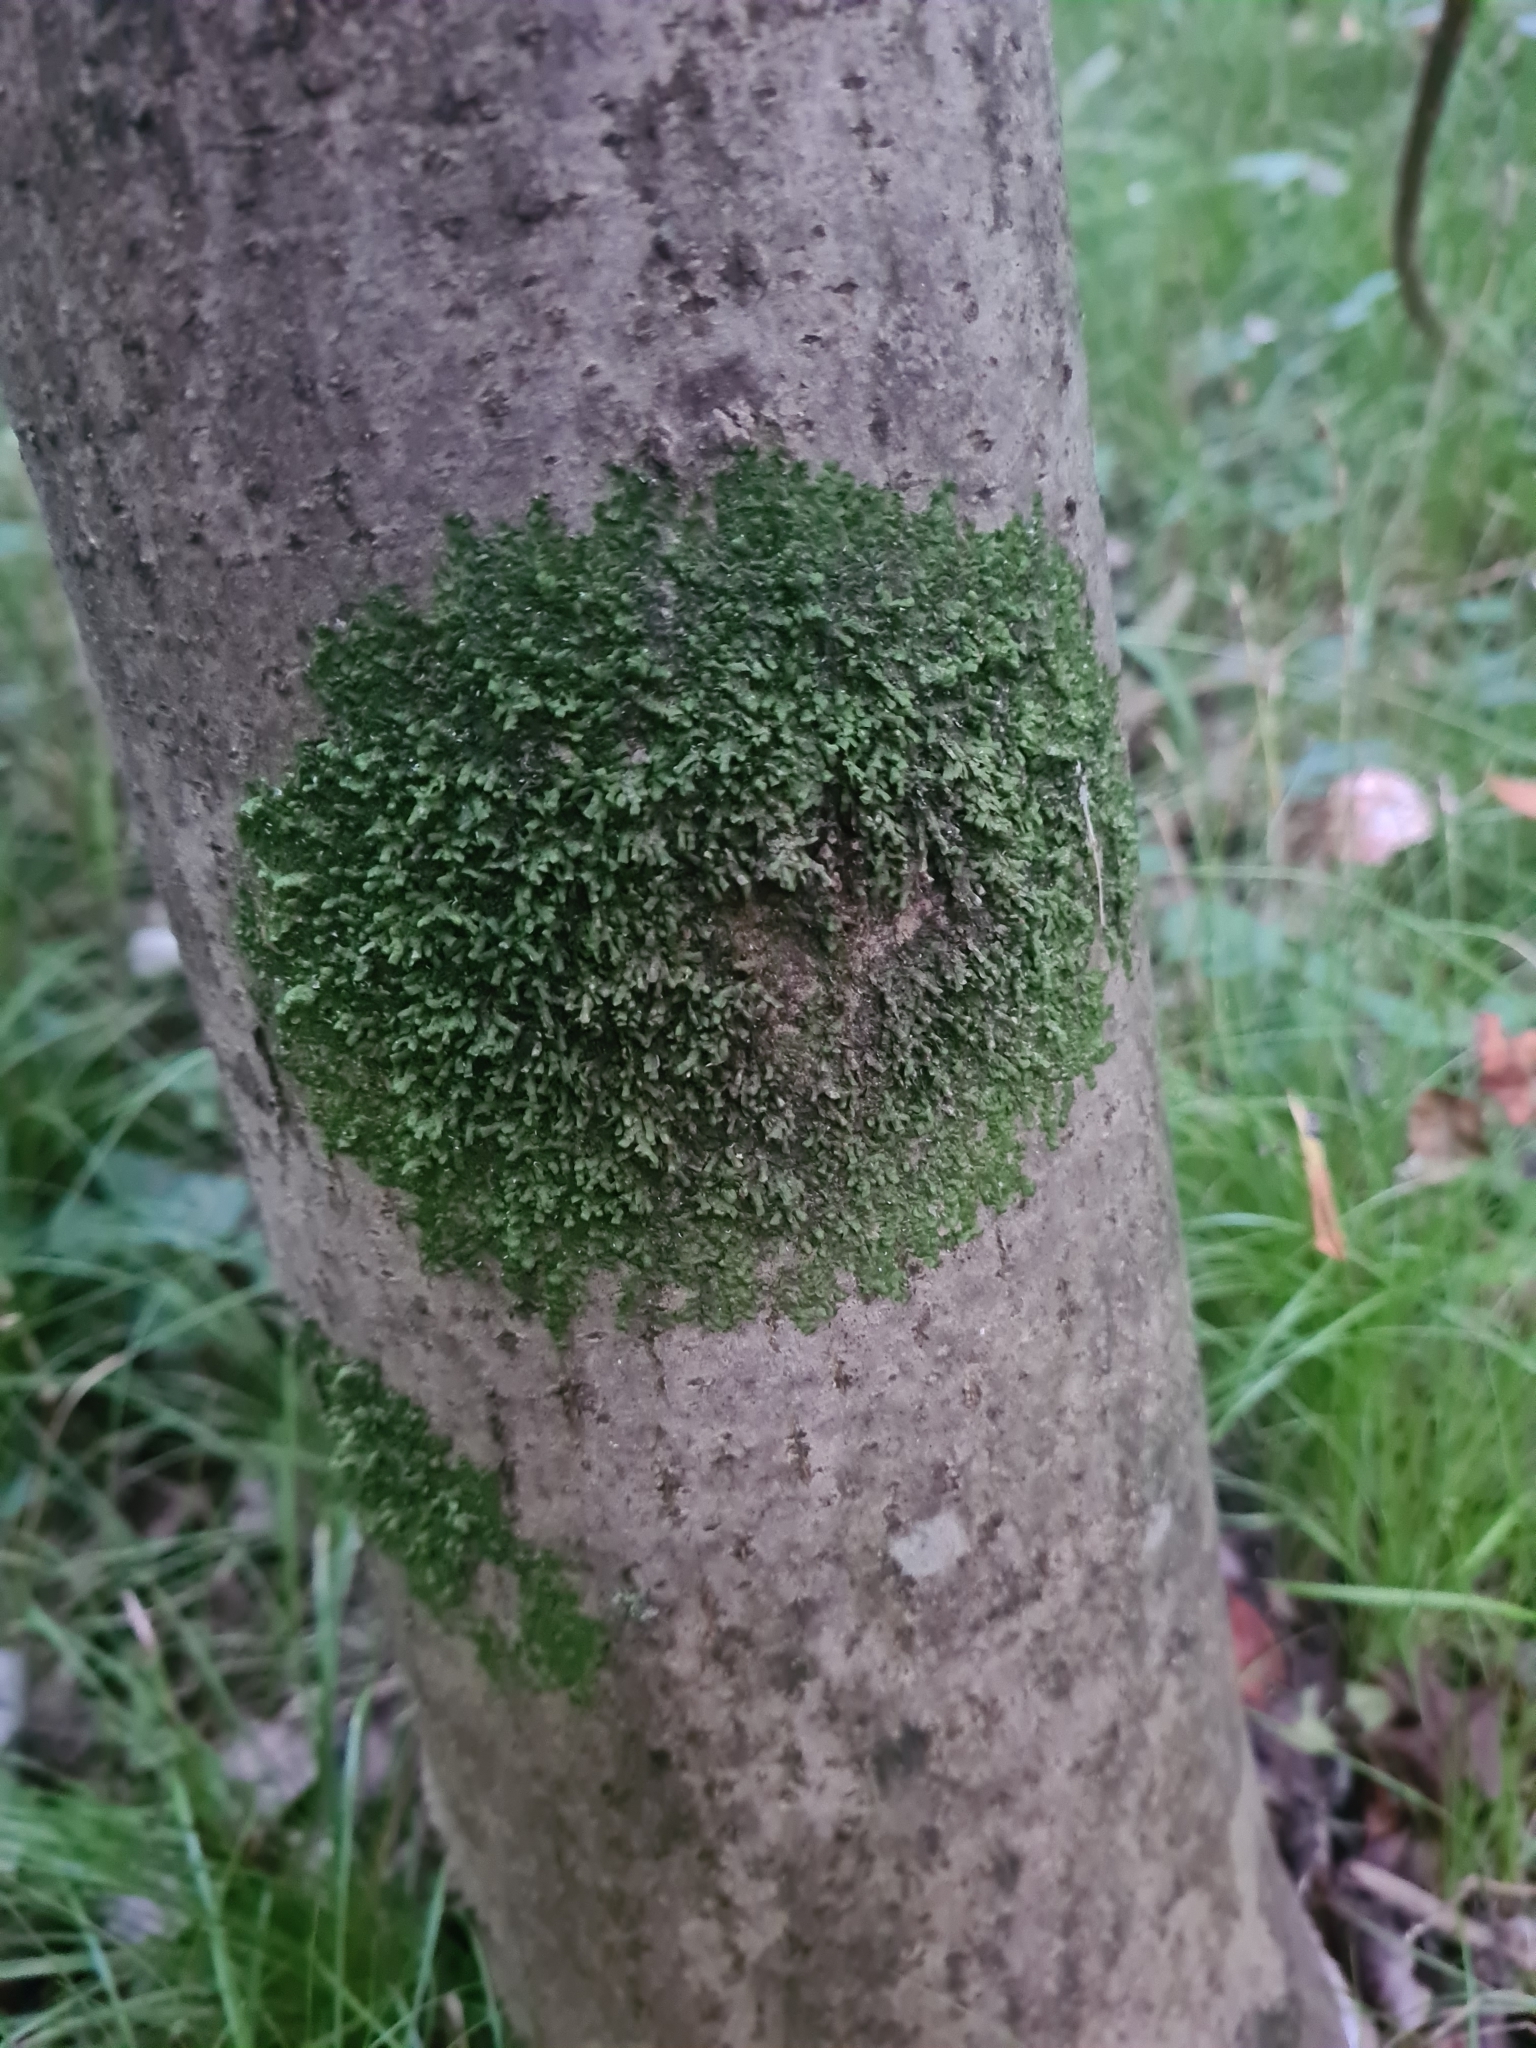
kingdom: Plantae
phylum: Marchantiophyta
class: Jungermanniopsida
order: Porellales
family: Radulaceae
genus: Radula
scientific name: Radula complanata
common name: Flat-leaved scalewort
